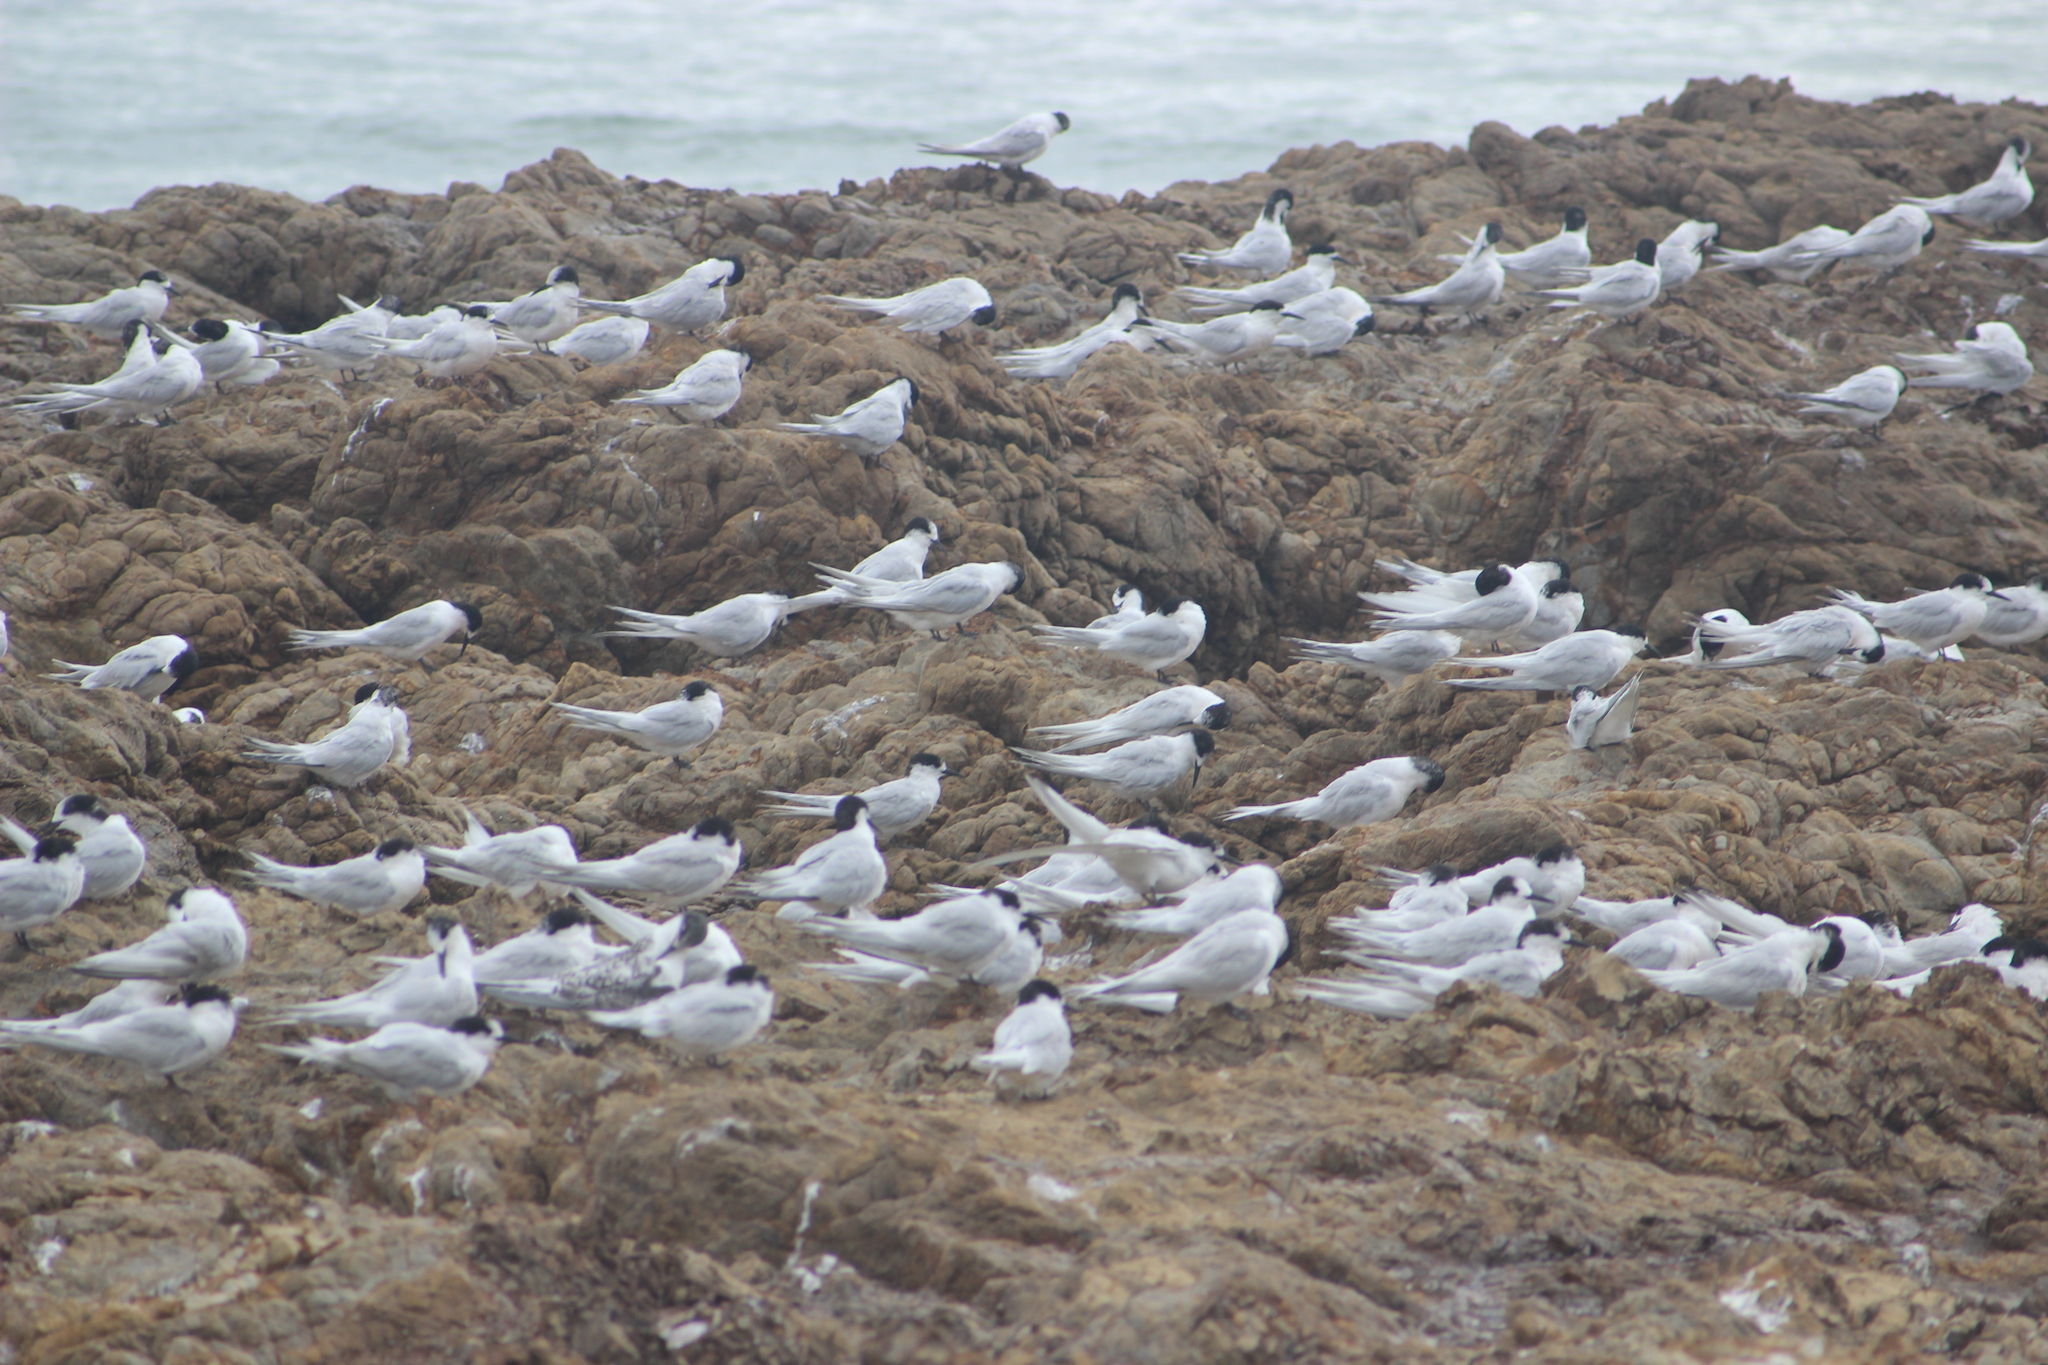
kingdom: Animalia
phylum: Chordata
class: Aves
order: Charadriiformes
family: Laridae
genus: Sterna
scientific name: Sterna striata
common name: White-fronted tern
